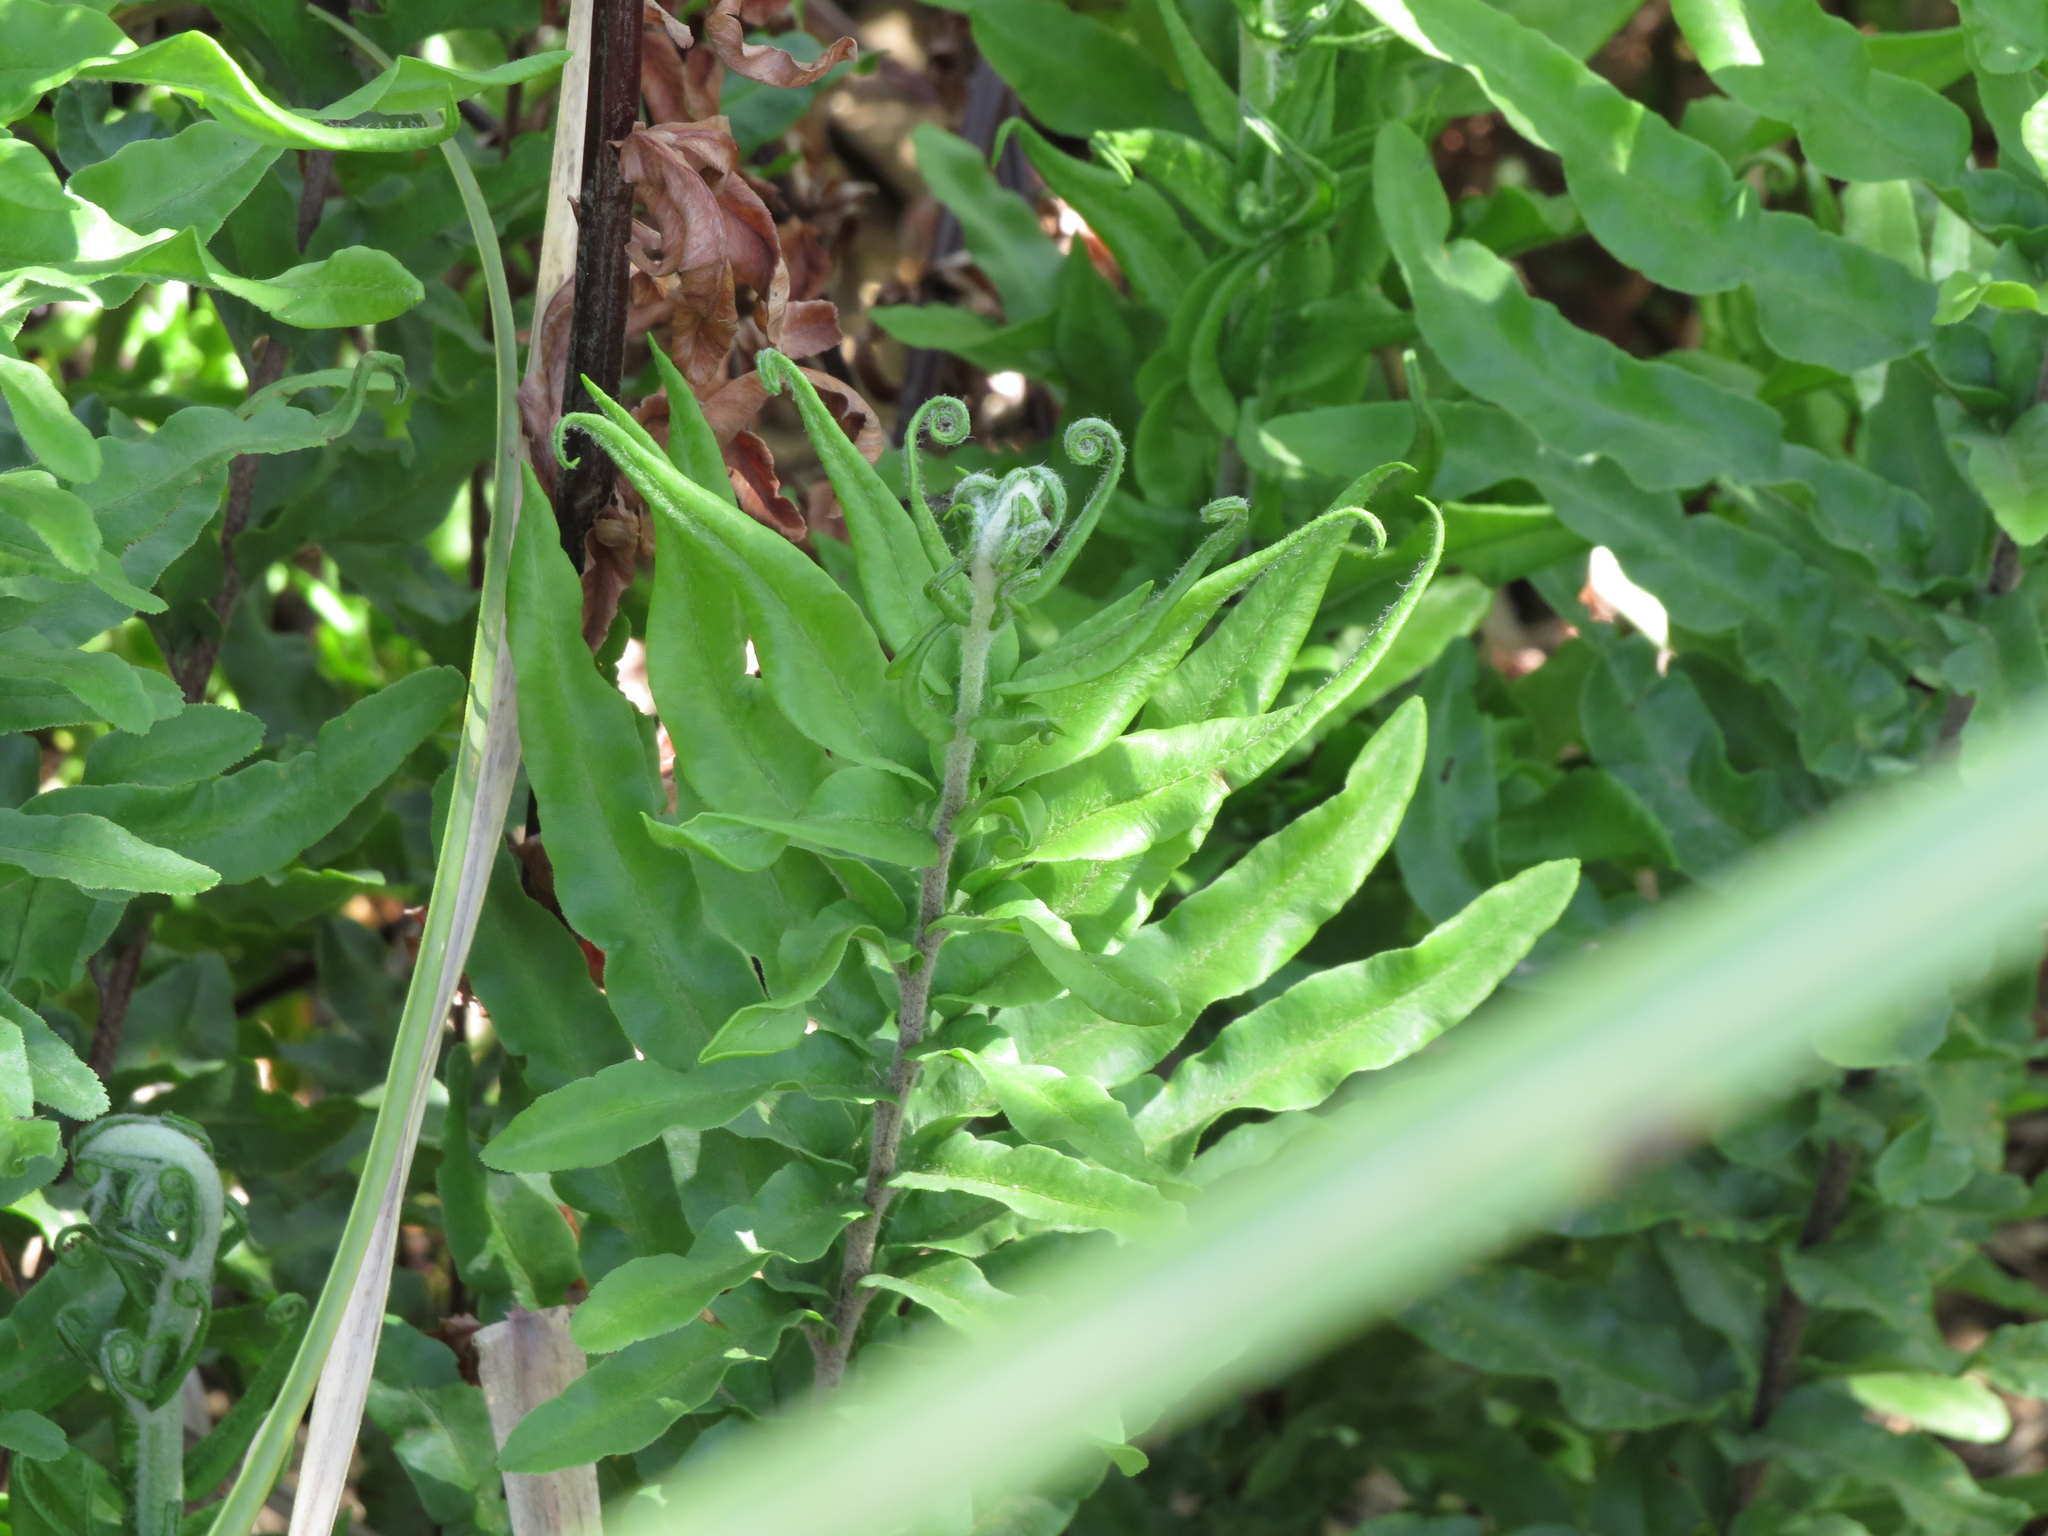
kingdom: Plantae
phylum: Tracheophyta
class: Polypodiopsida
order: Polypodiales
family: Pteridaceae
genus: Pityrogramma
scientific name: Pityrogramma trifoliata
